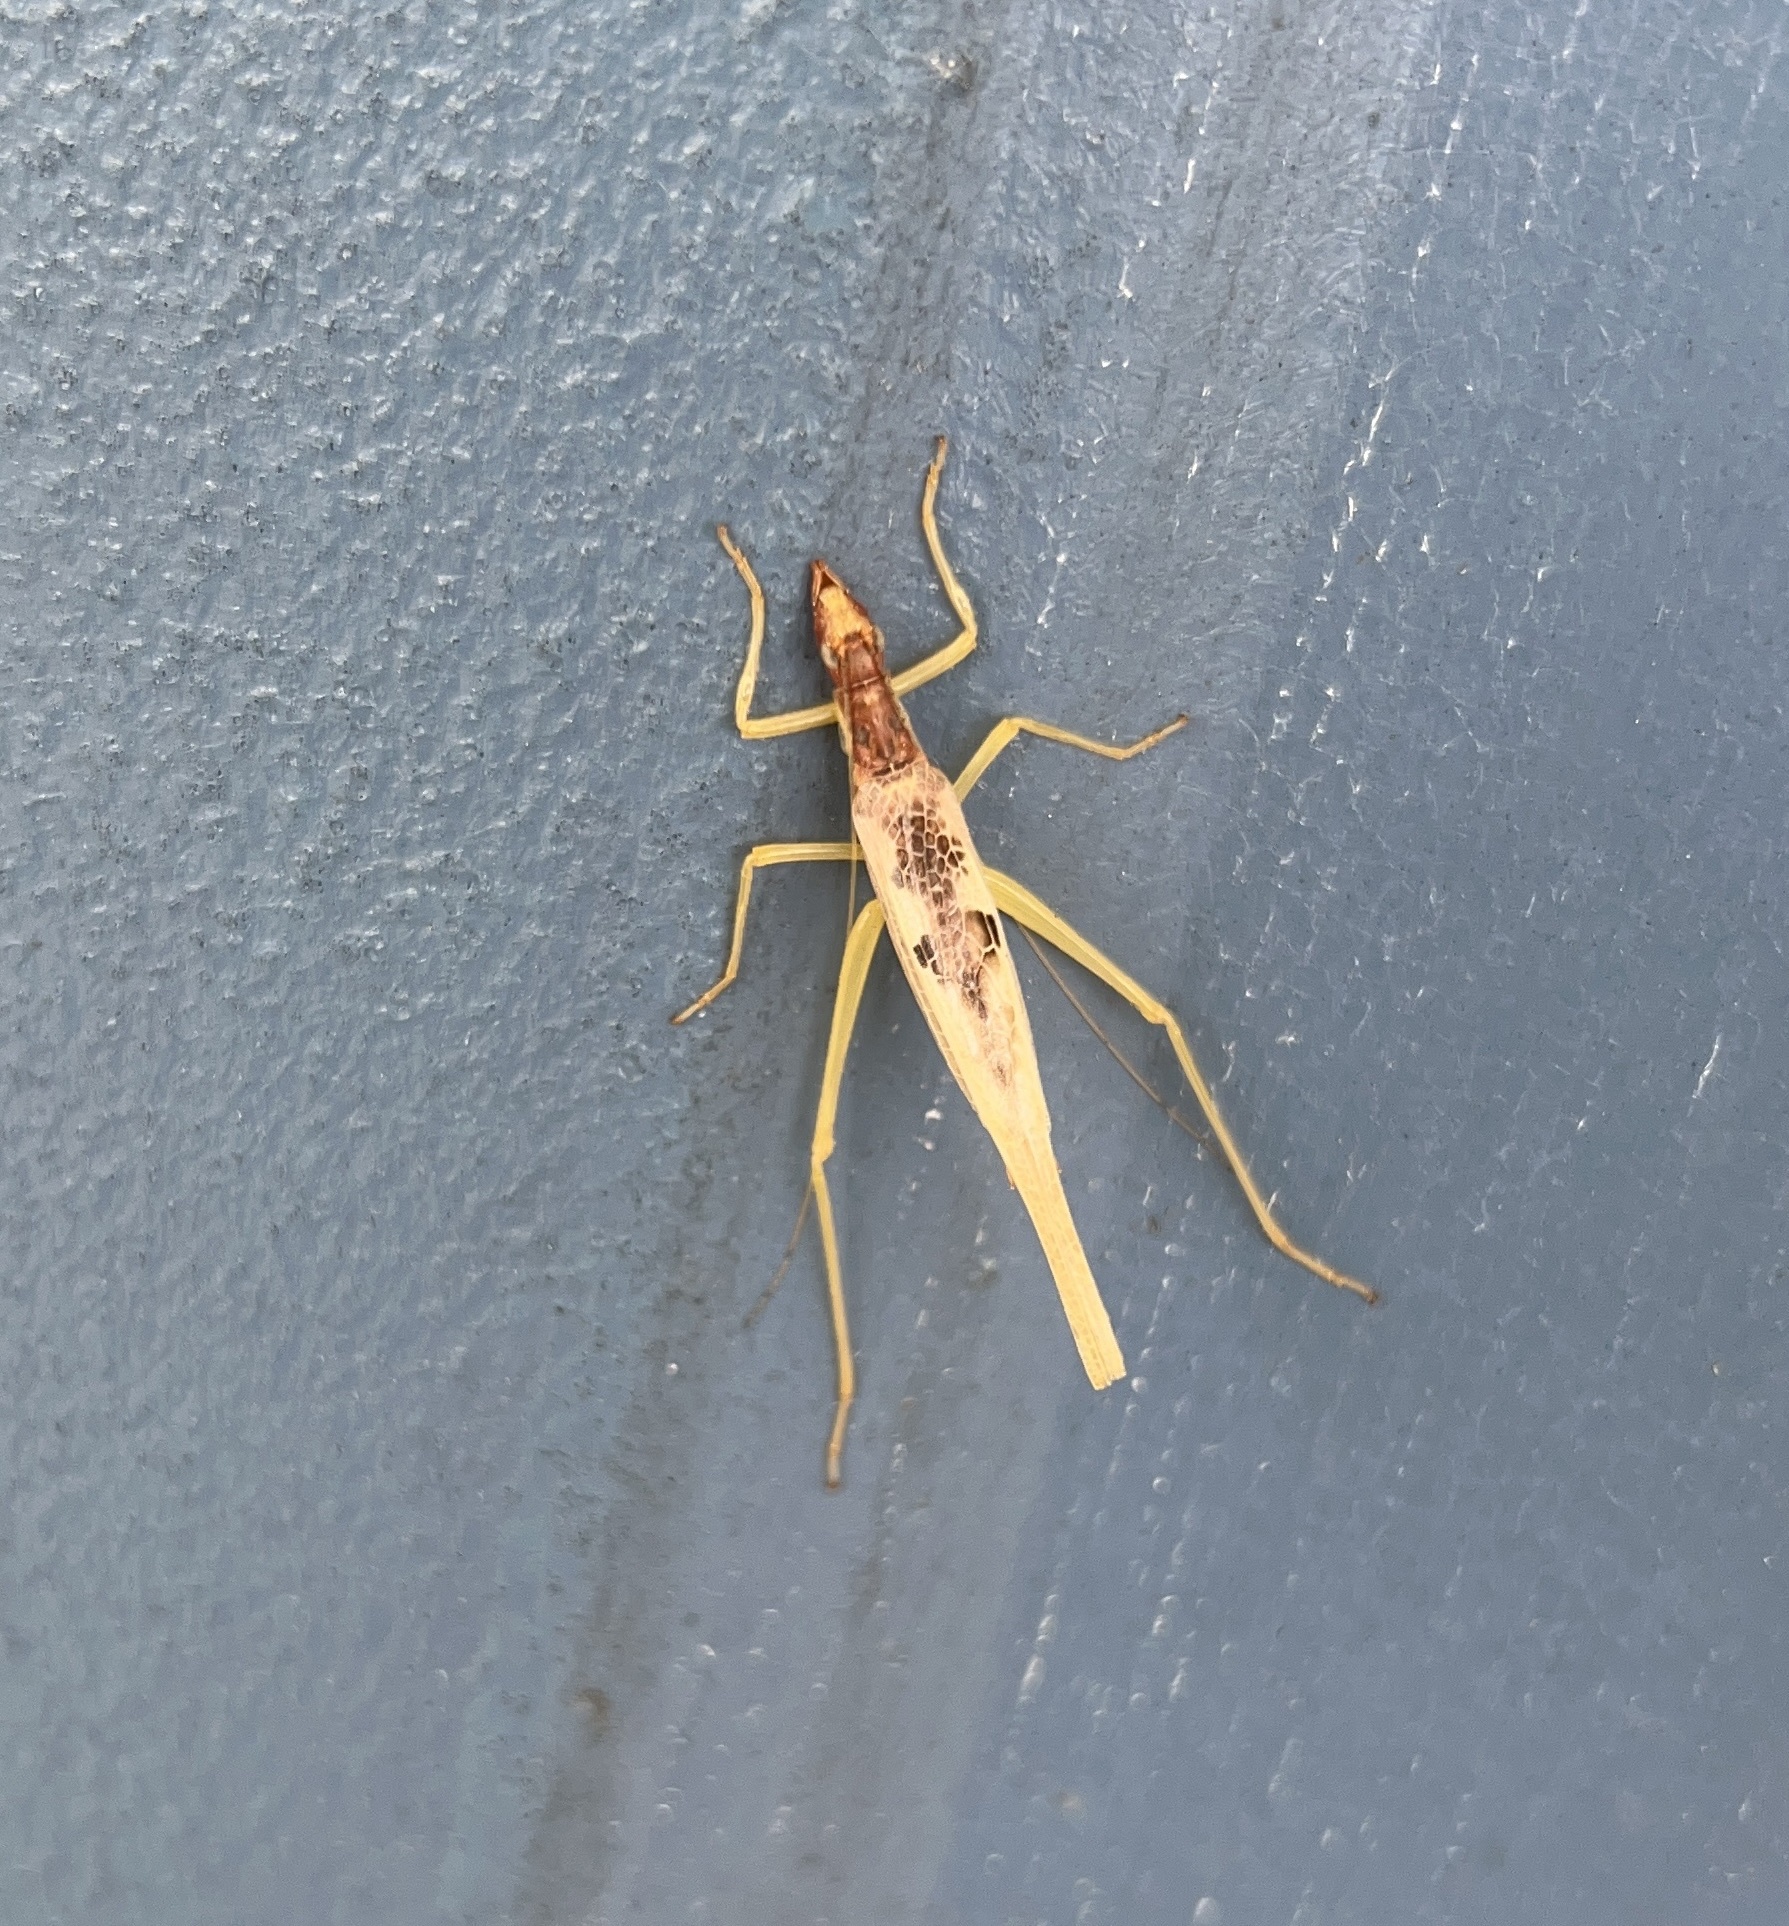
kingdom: Animalia
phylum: Arthropoda
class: Insecta
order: Orthoptera
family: Gryllidae
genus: Neoxabea
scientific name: Neoxabea bipunctata
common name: Two-spotted tree cricket
